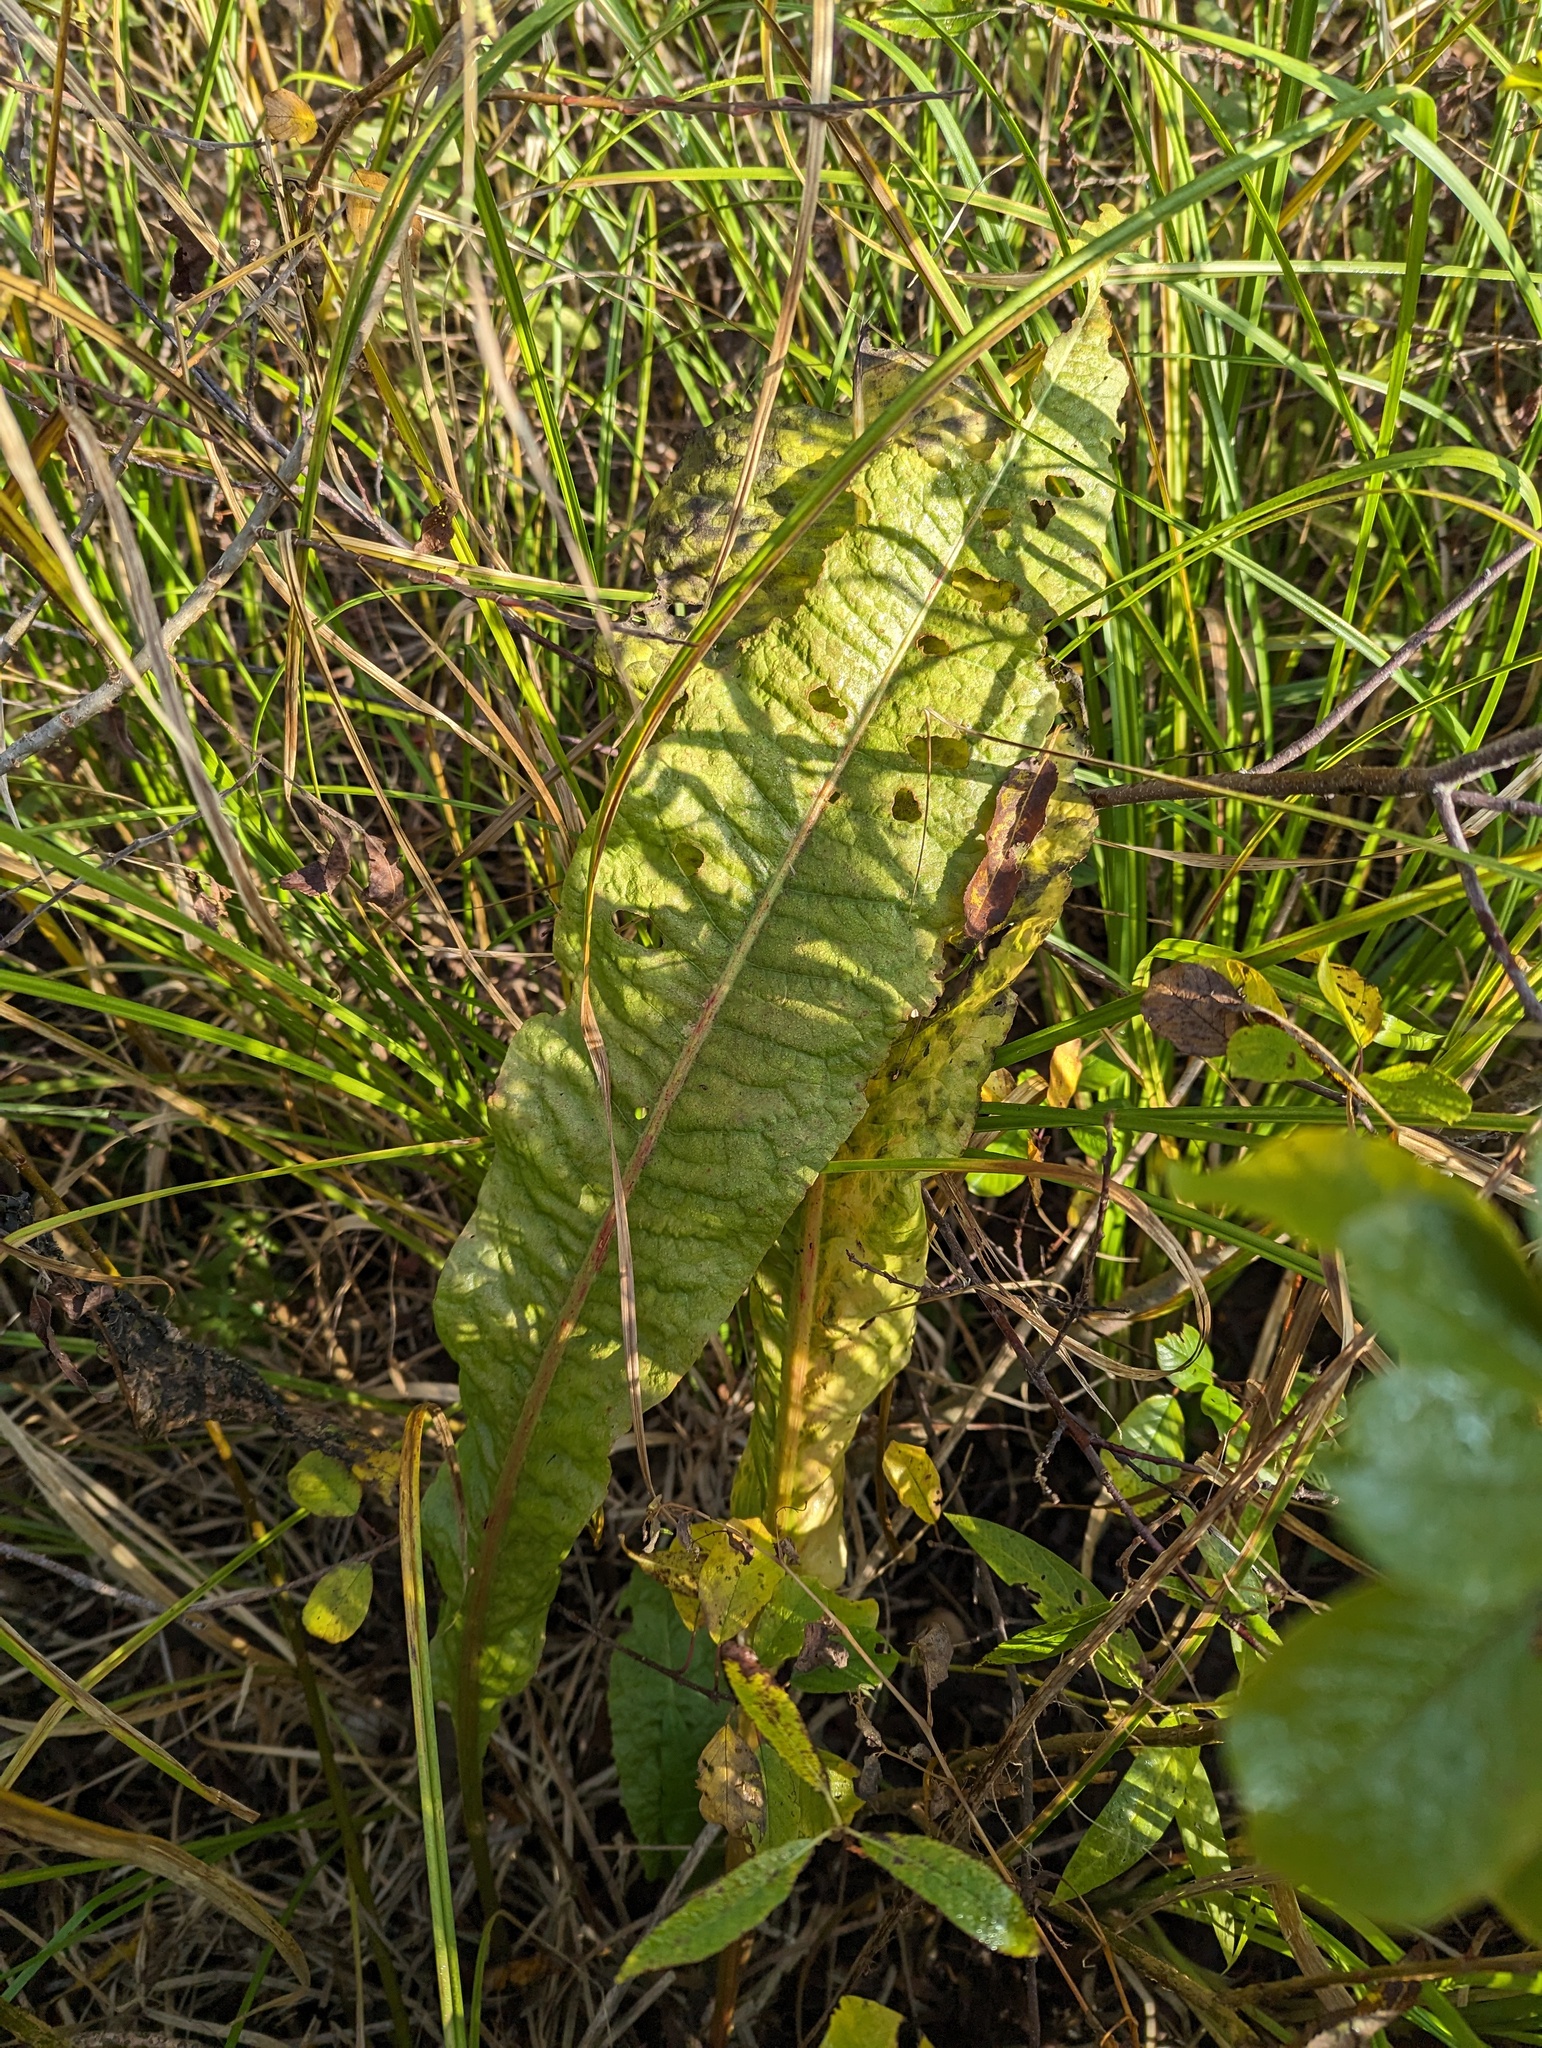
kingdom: Plantae
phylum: Tracheophyta
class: Magnoliopsida
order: Caryophyllales
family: Polygonaceae
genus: Rumex
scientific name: Rumex britannica
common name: British dock
